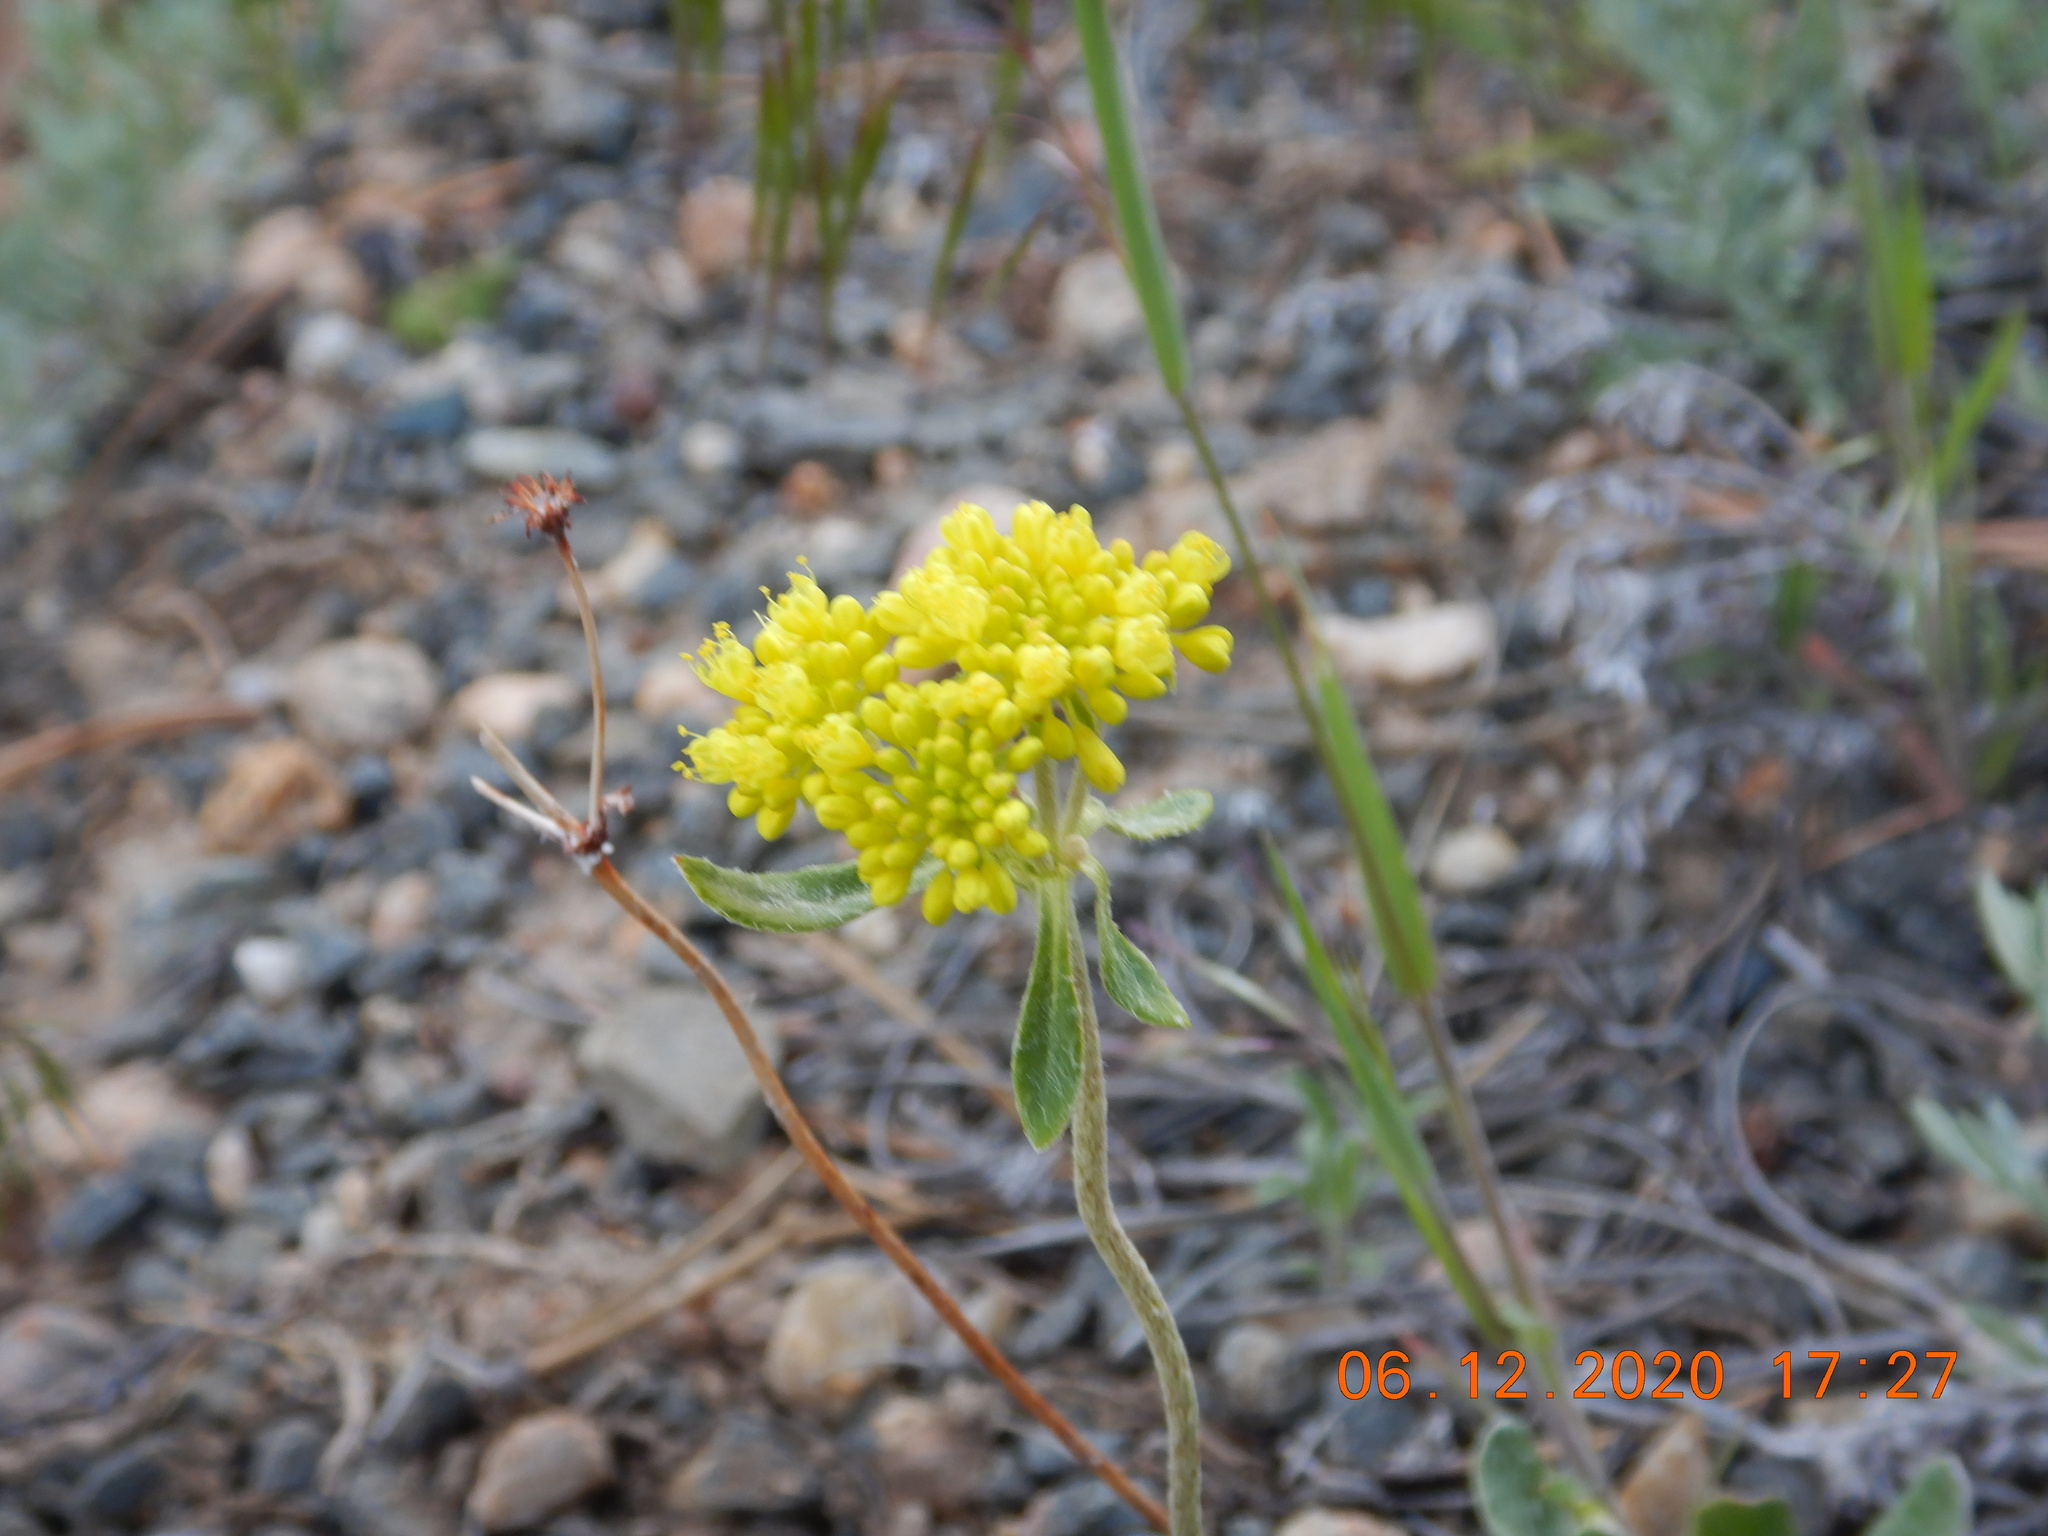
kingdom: Plantae
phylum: Tracheophyta
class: Magnoliopsida
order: Caryophyllales
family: Polygonaceae
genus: Eriogonum
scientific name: Eriogonum umbellatum
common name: Sulfur-buckwheat
